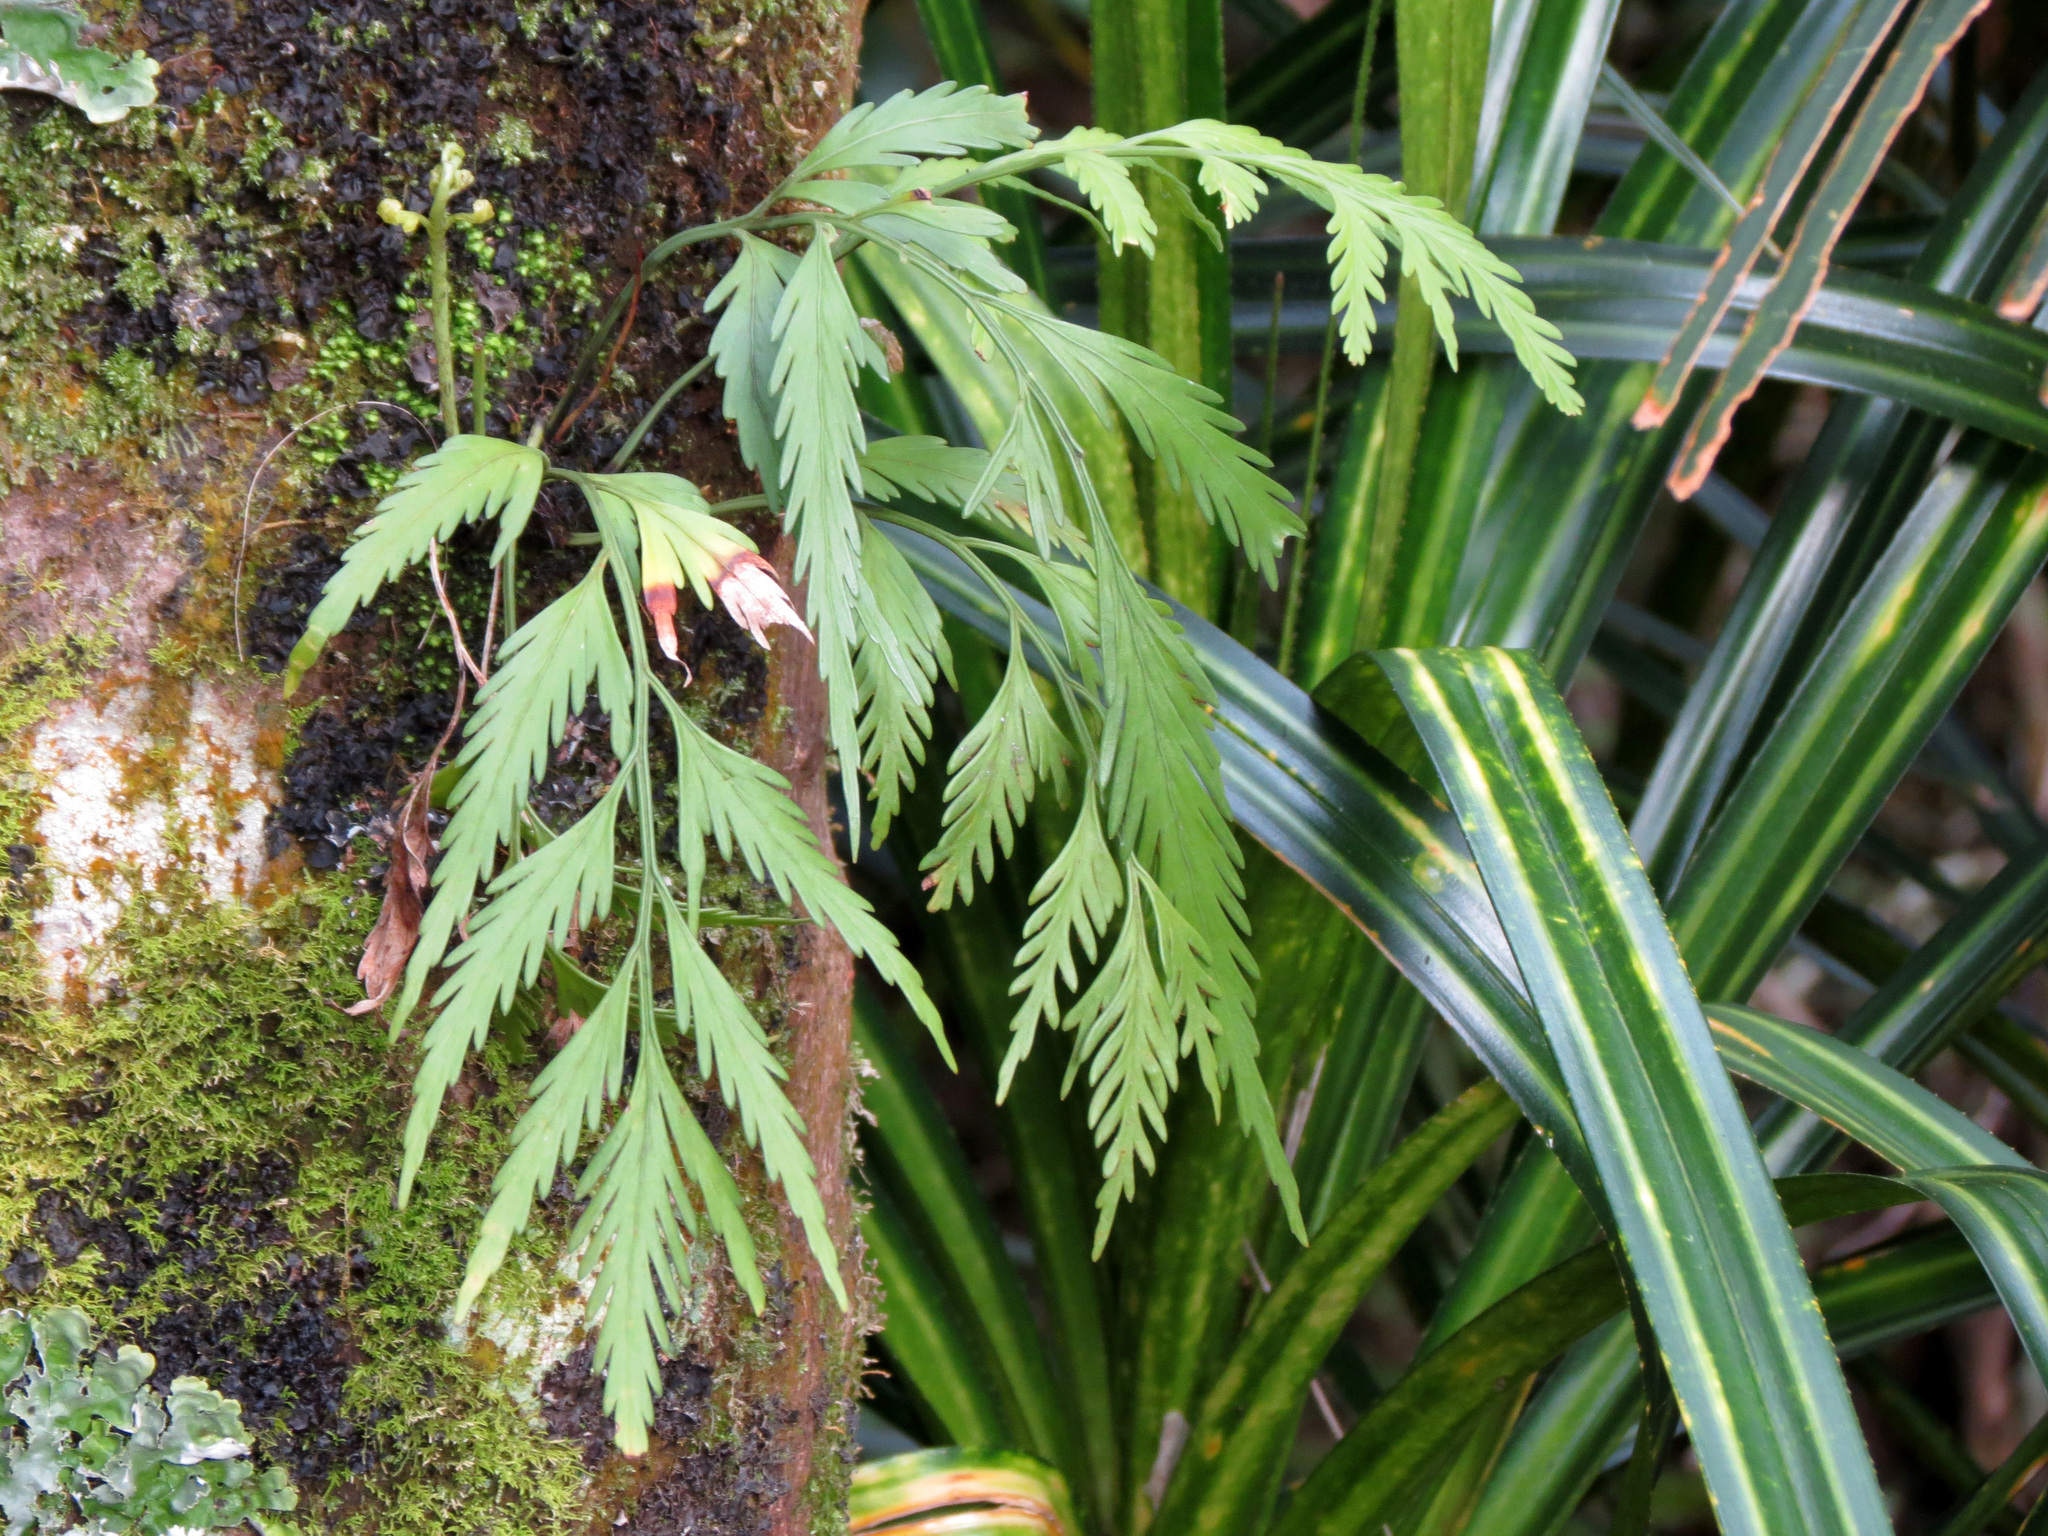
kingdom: Plantae
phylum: Tracheophyta
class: Polypodiopsida
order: Polypodiales
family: Aspleniaceae
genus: Asplenium
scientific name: Asplenium flaccidum
